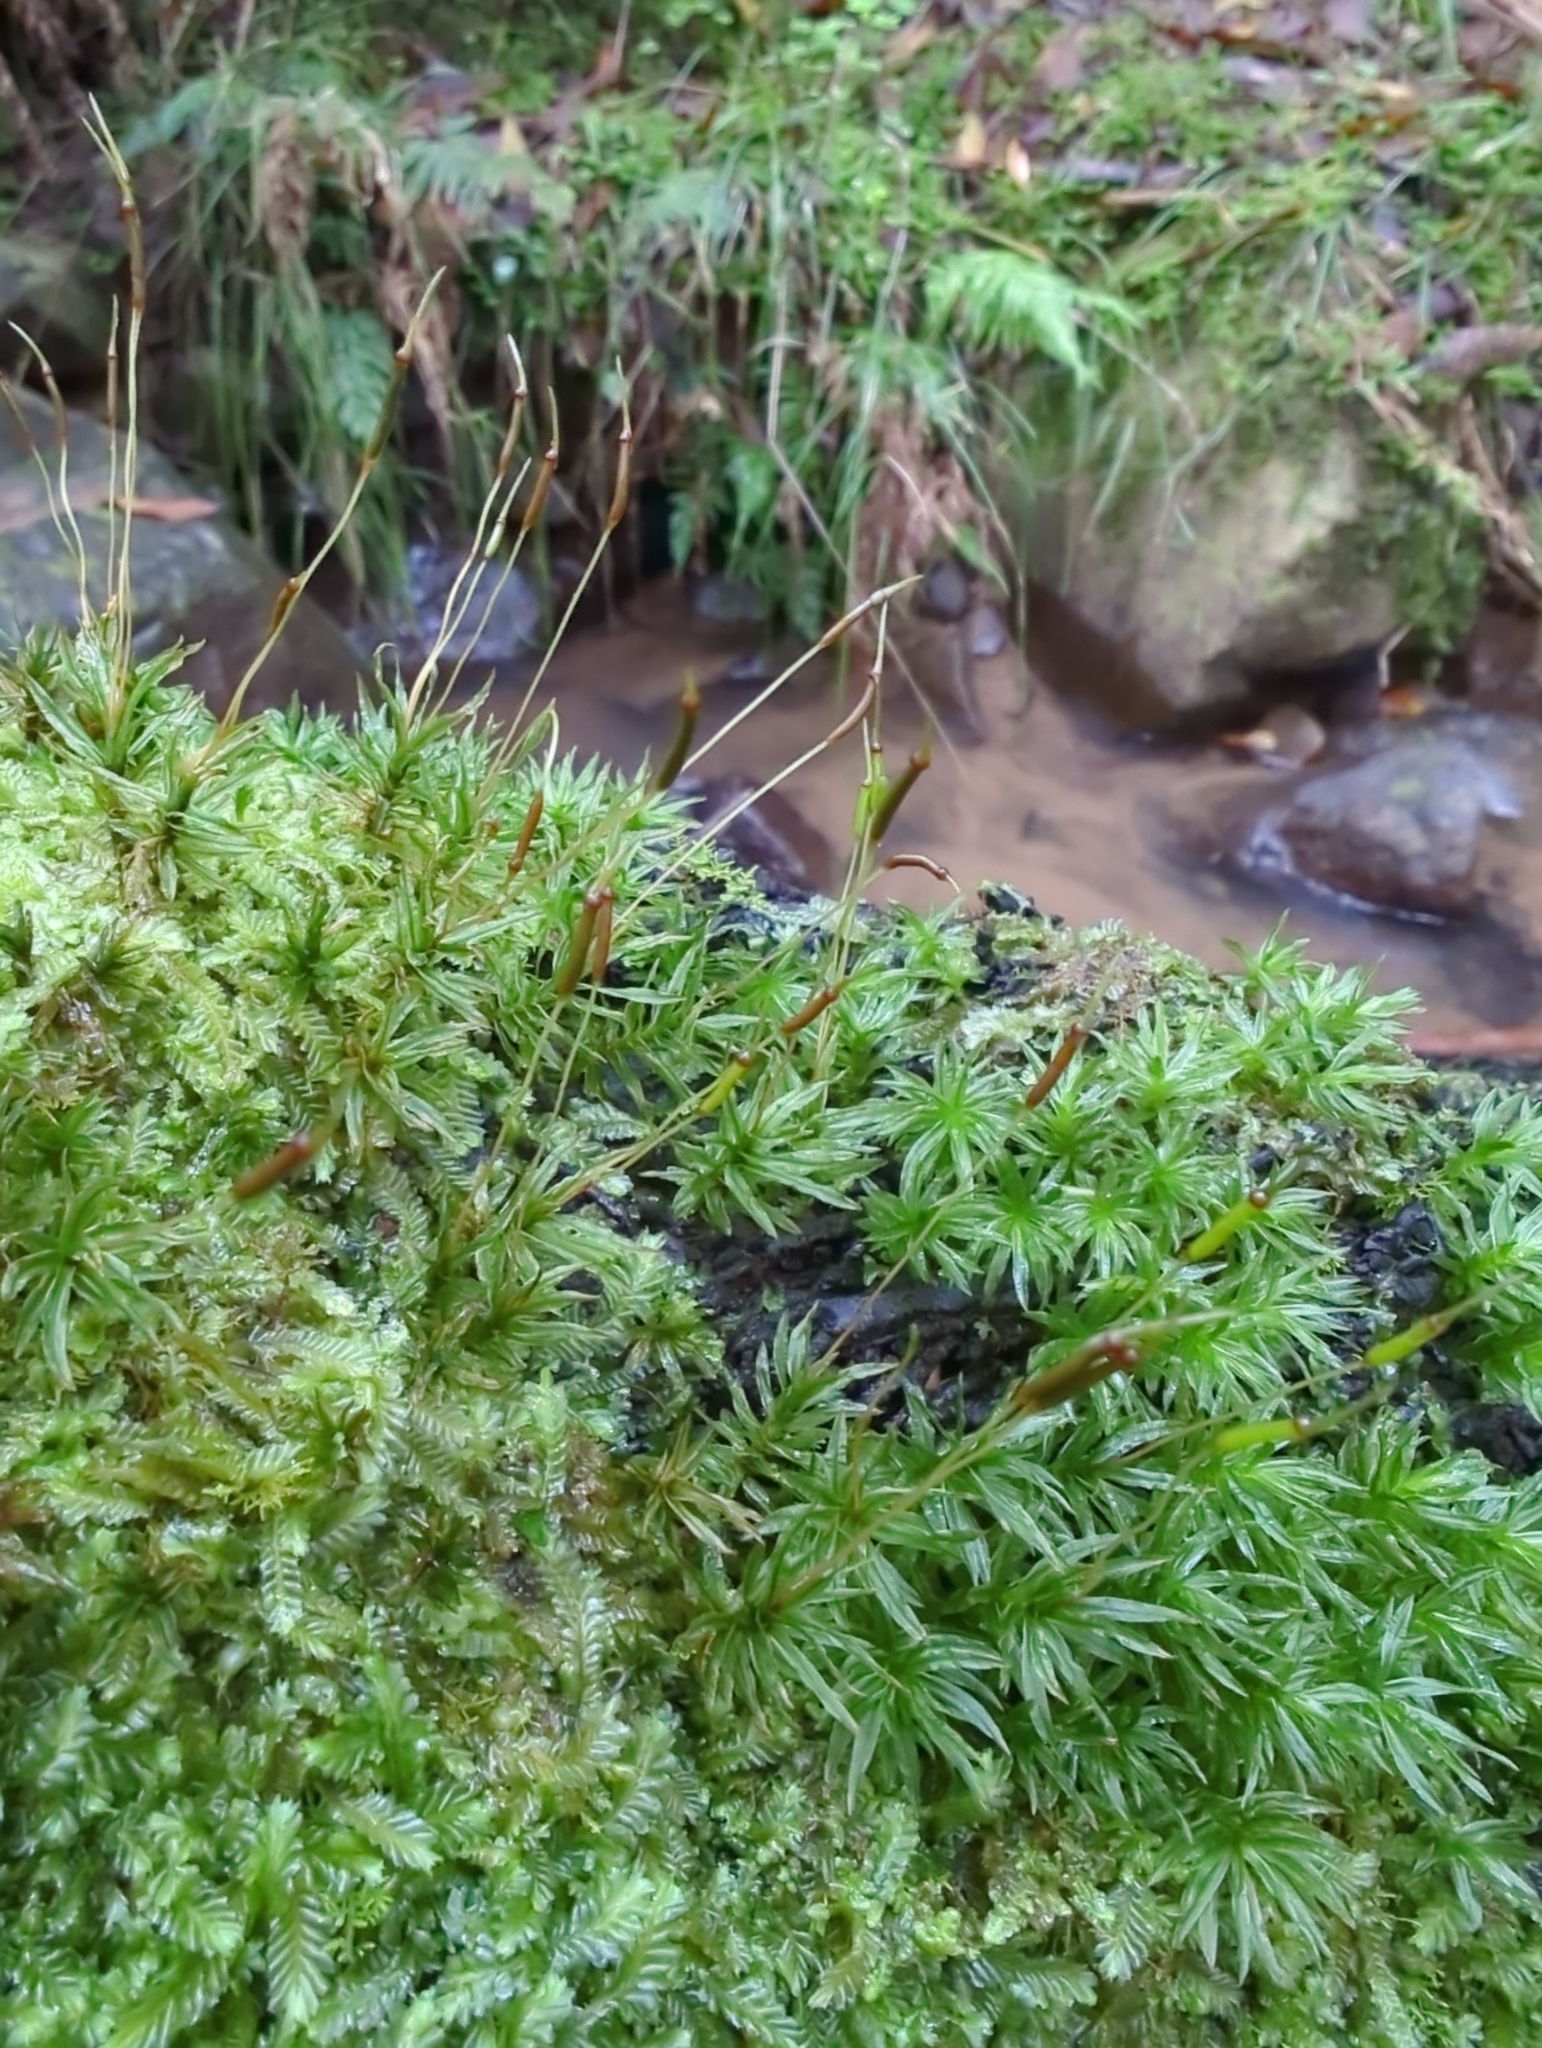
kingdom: Plantae
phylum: Bryophyta
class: Polytrichopsida
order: Polytrichales
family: Polytrichaceae
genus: Atrichum
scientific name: Atrichum androgynum
